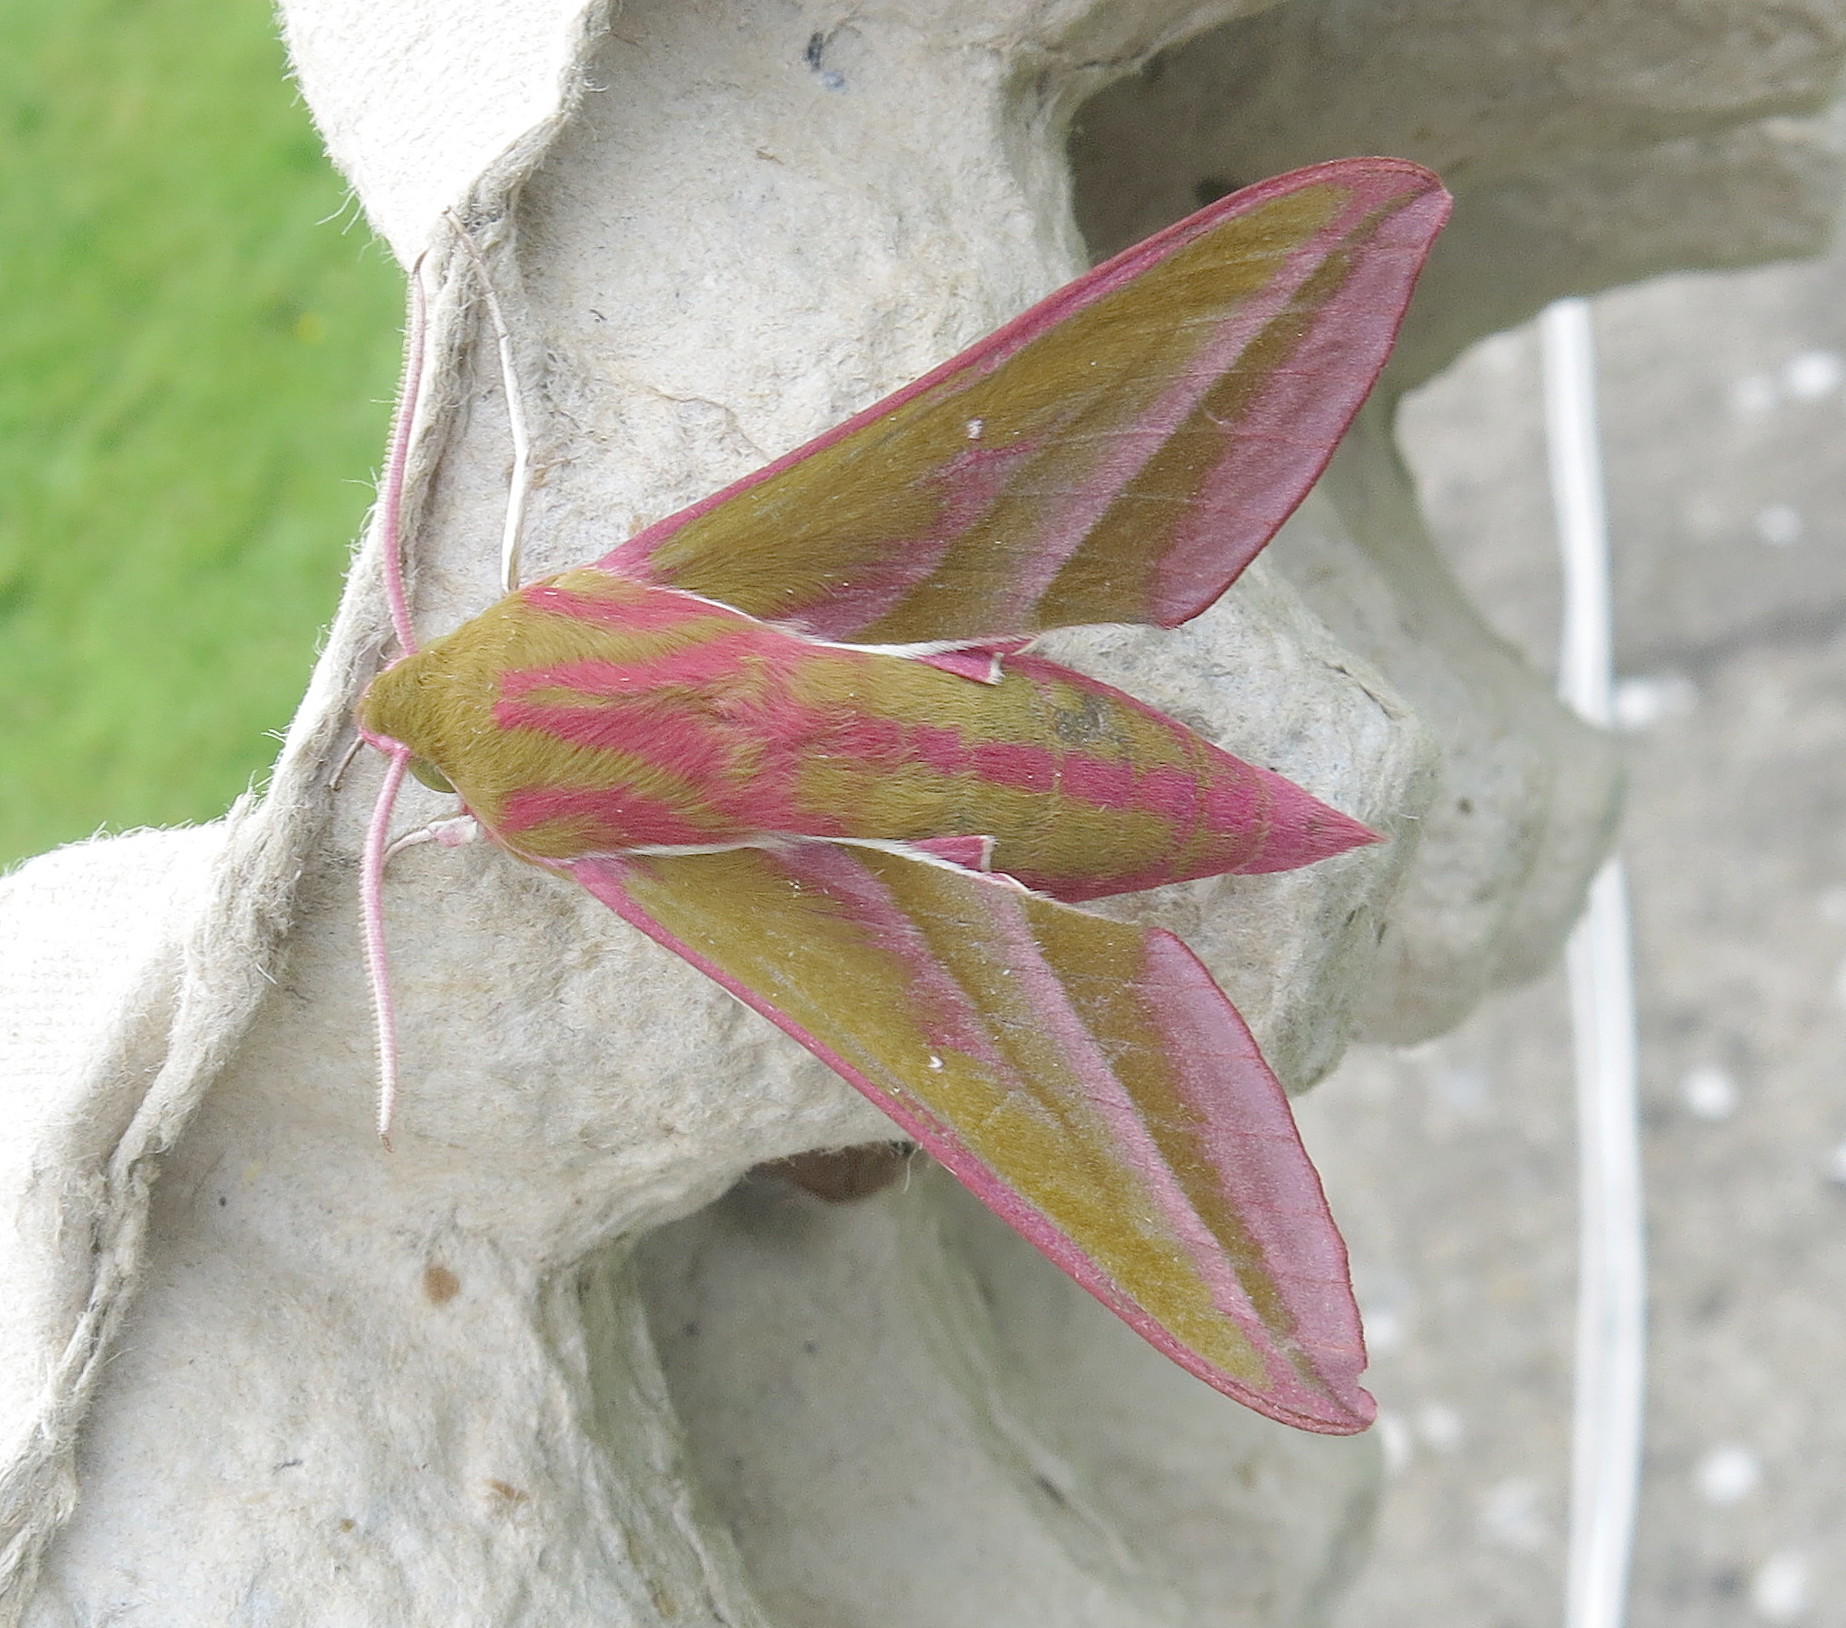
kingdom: Animalia
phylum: Arthropoda
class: Insecta
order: Lepidoptera
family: Sphingidae
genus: Deilephila
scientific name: Deilephila elpenor
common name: Elephant hawk-moth
